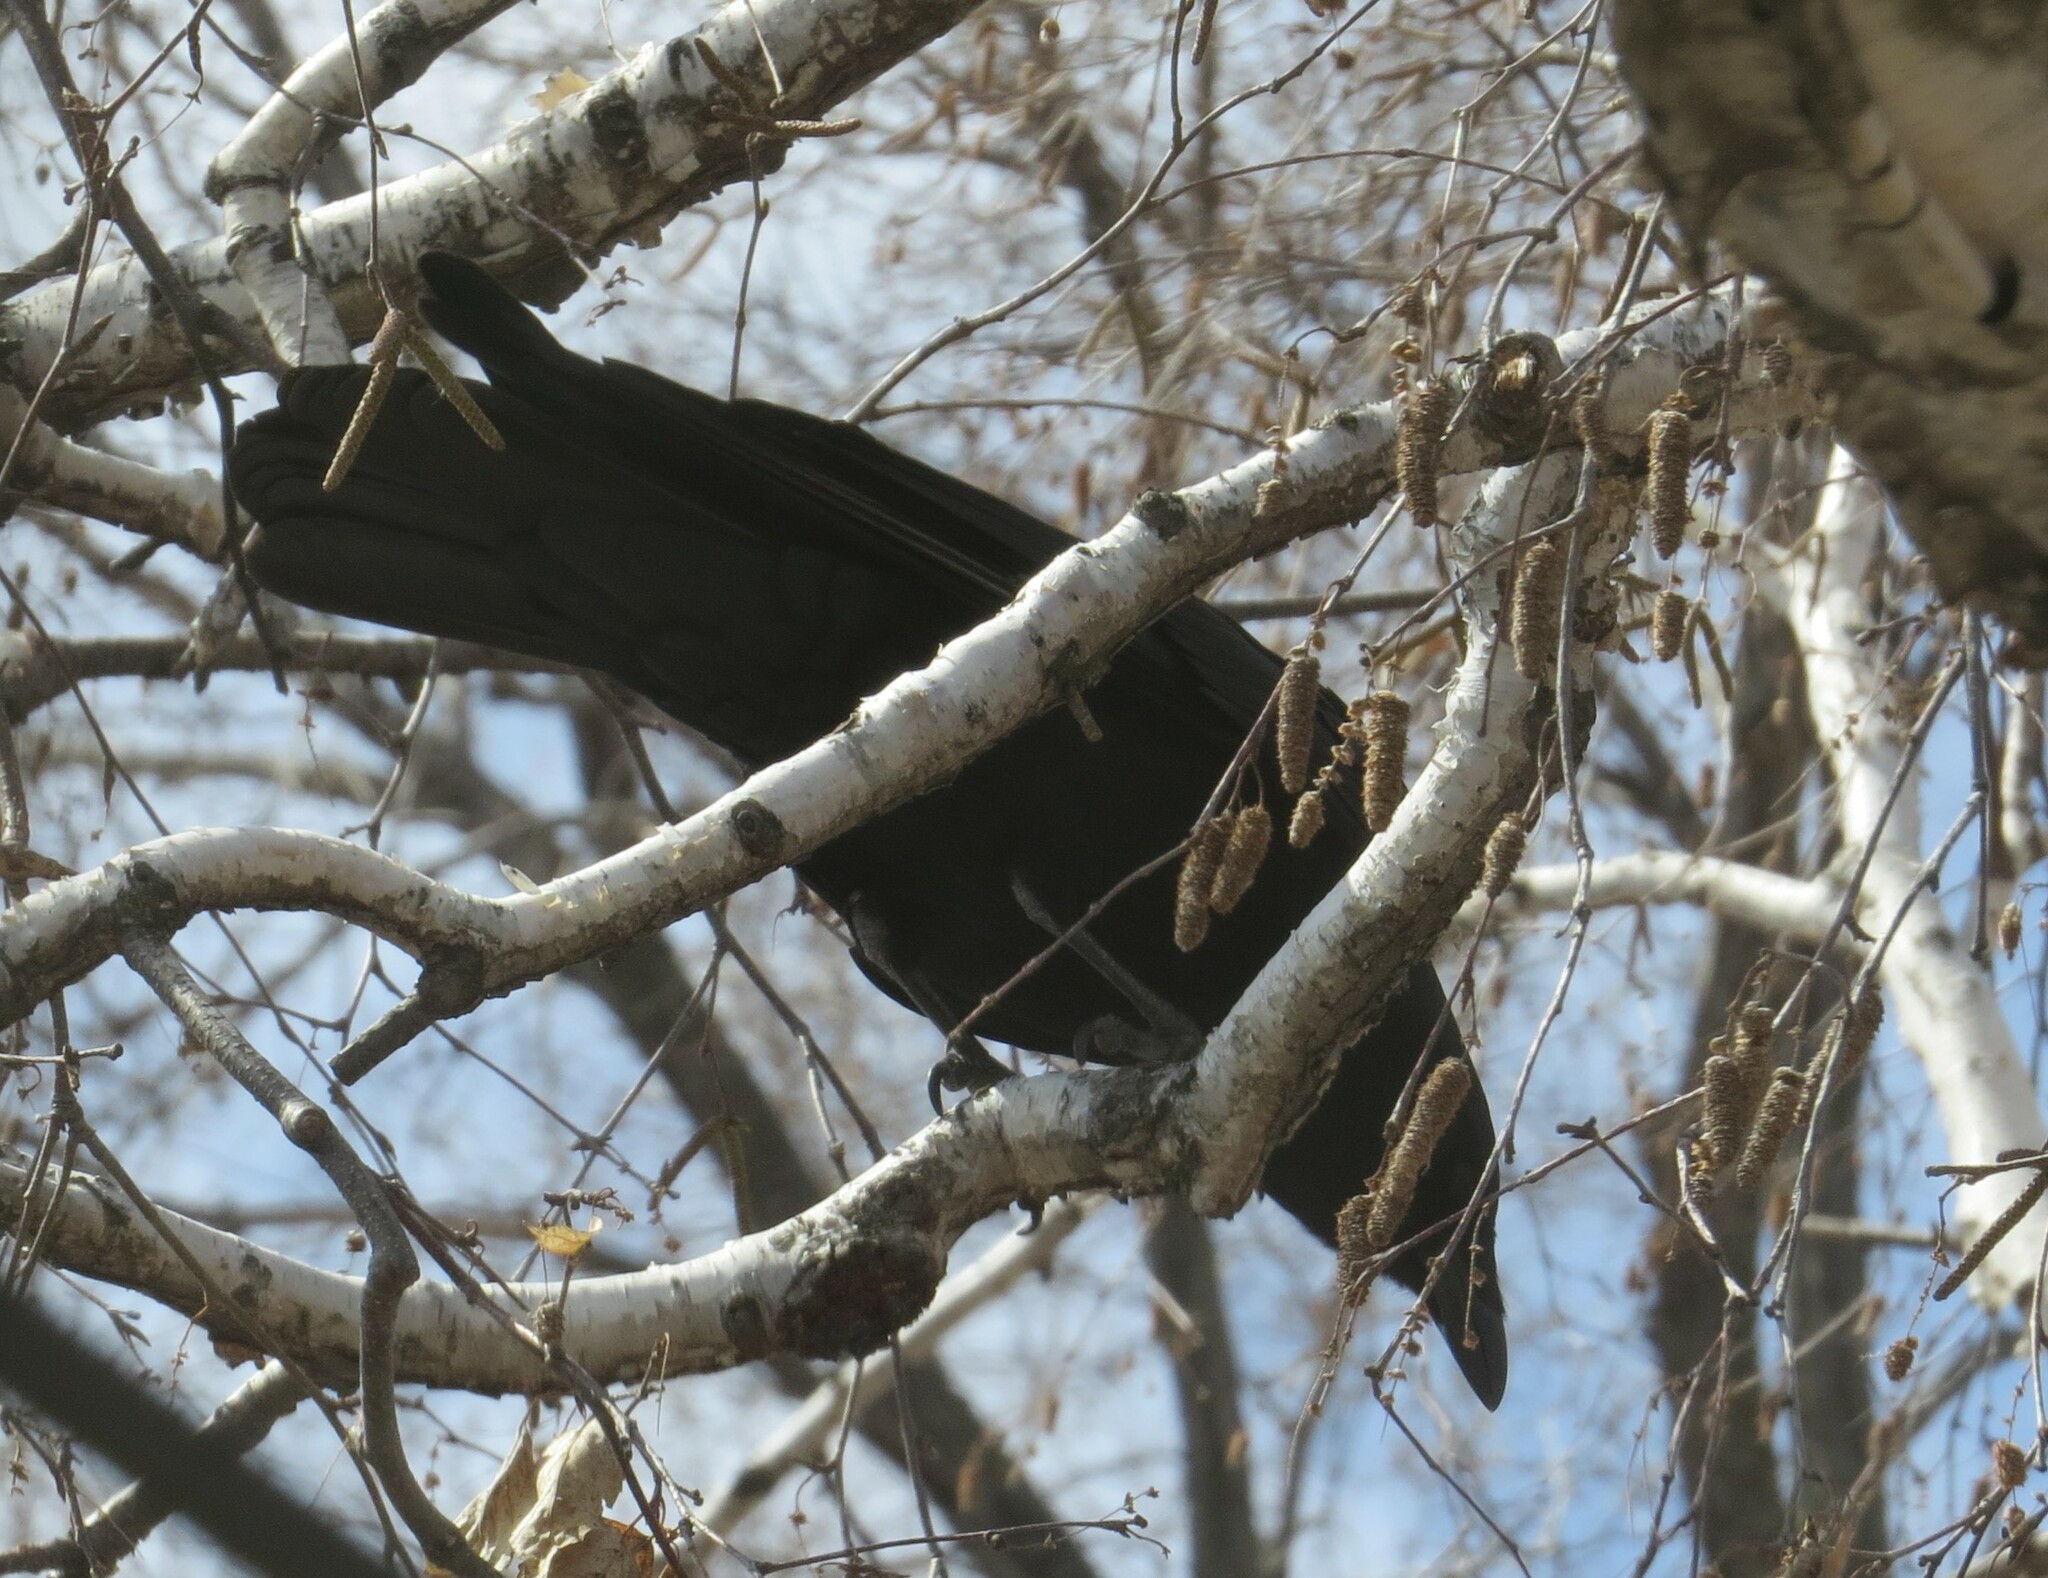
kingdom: Animalia
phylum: Chordata
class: Aves
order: Passeriformes
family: Corvidae
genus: Corvus
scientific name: Corvus brachyrhynchos
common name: American crow
